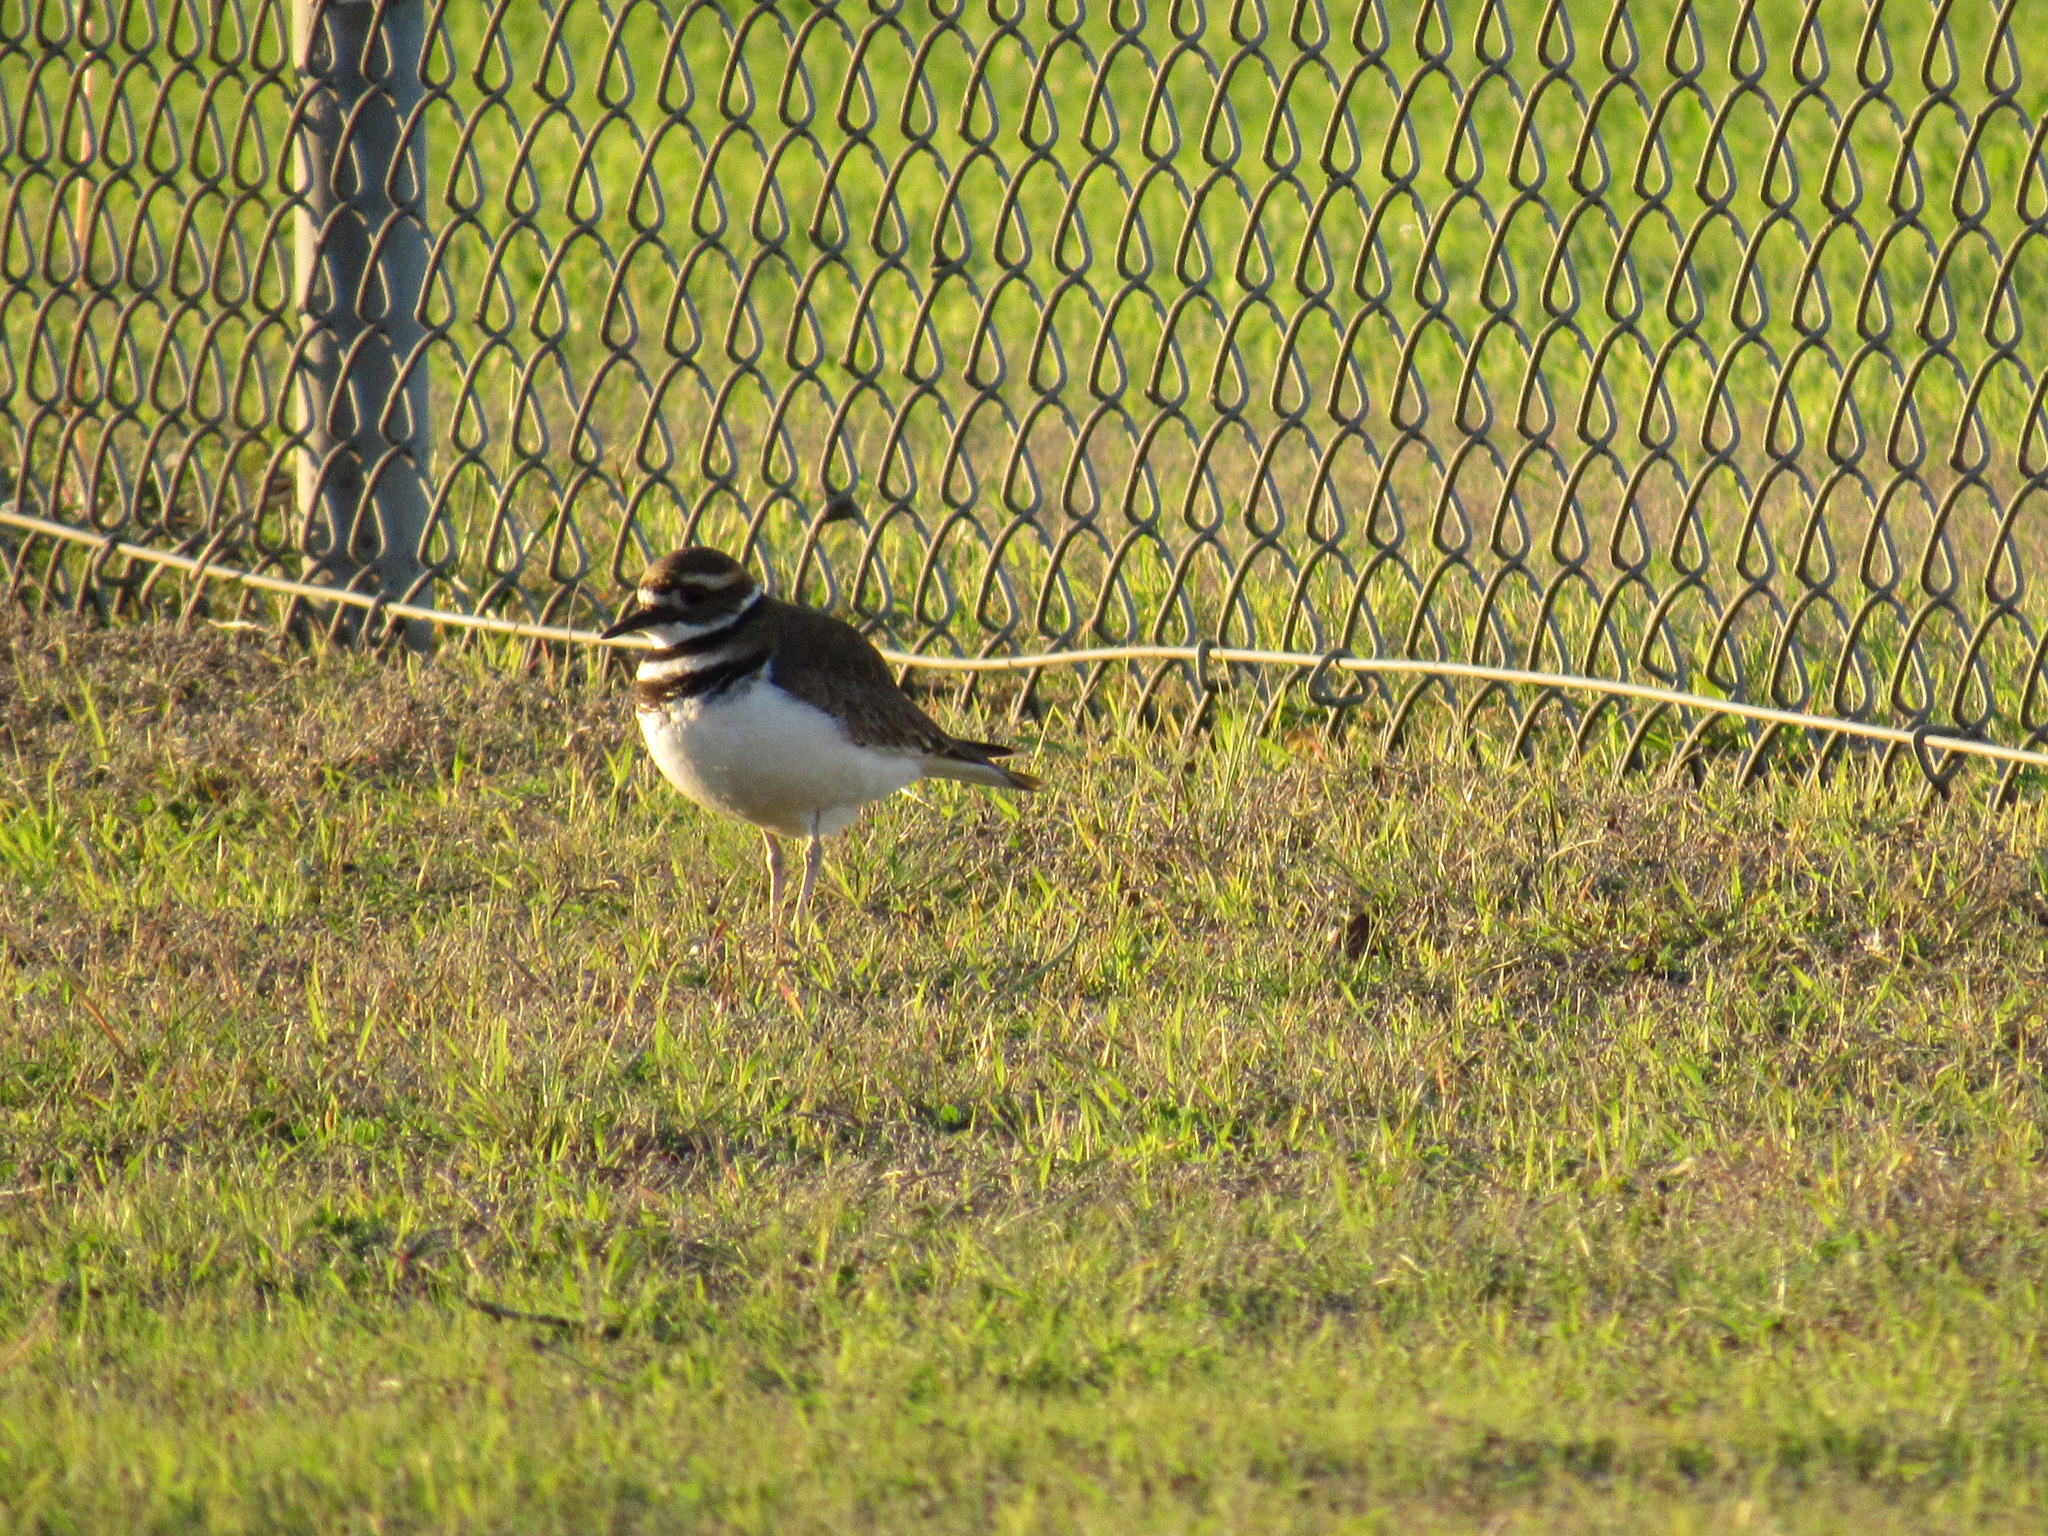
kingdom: Animalia
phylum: Chordata
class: Aves
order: Charadriiformes
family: Charadriidae
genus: Charadrius
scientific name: Charadrius vociferus
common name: Killdeer
